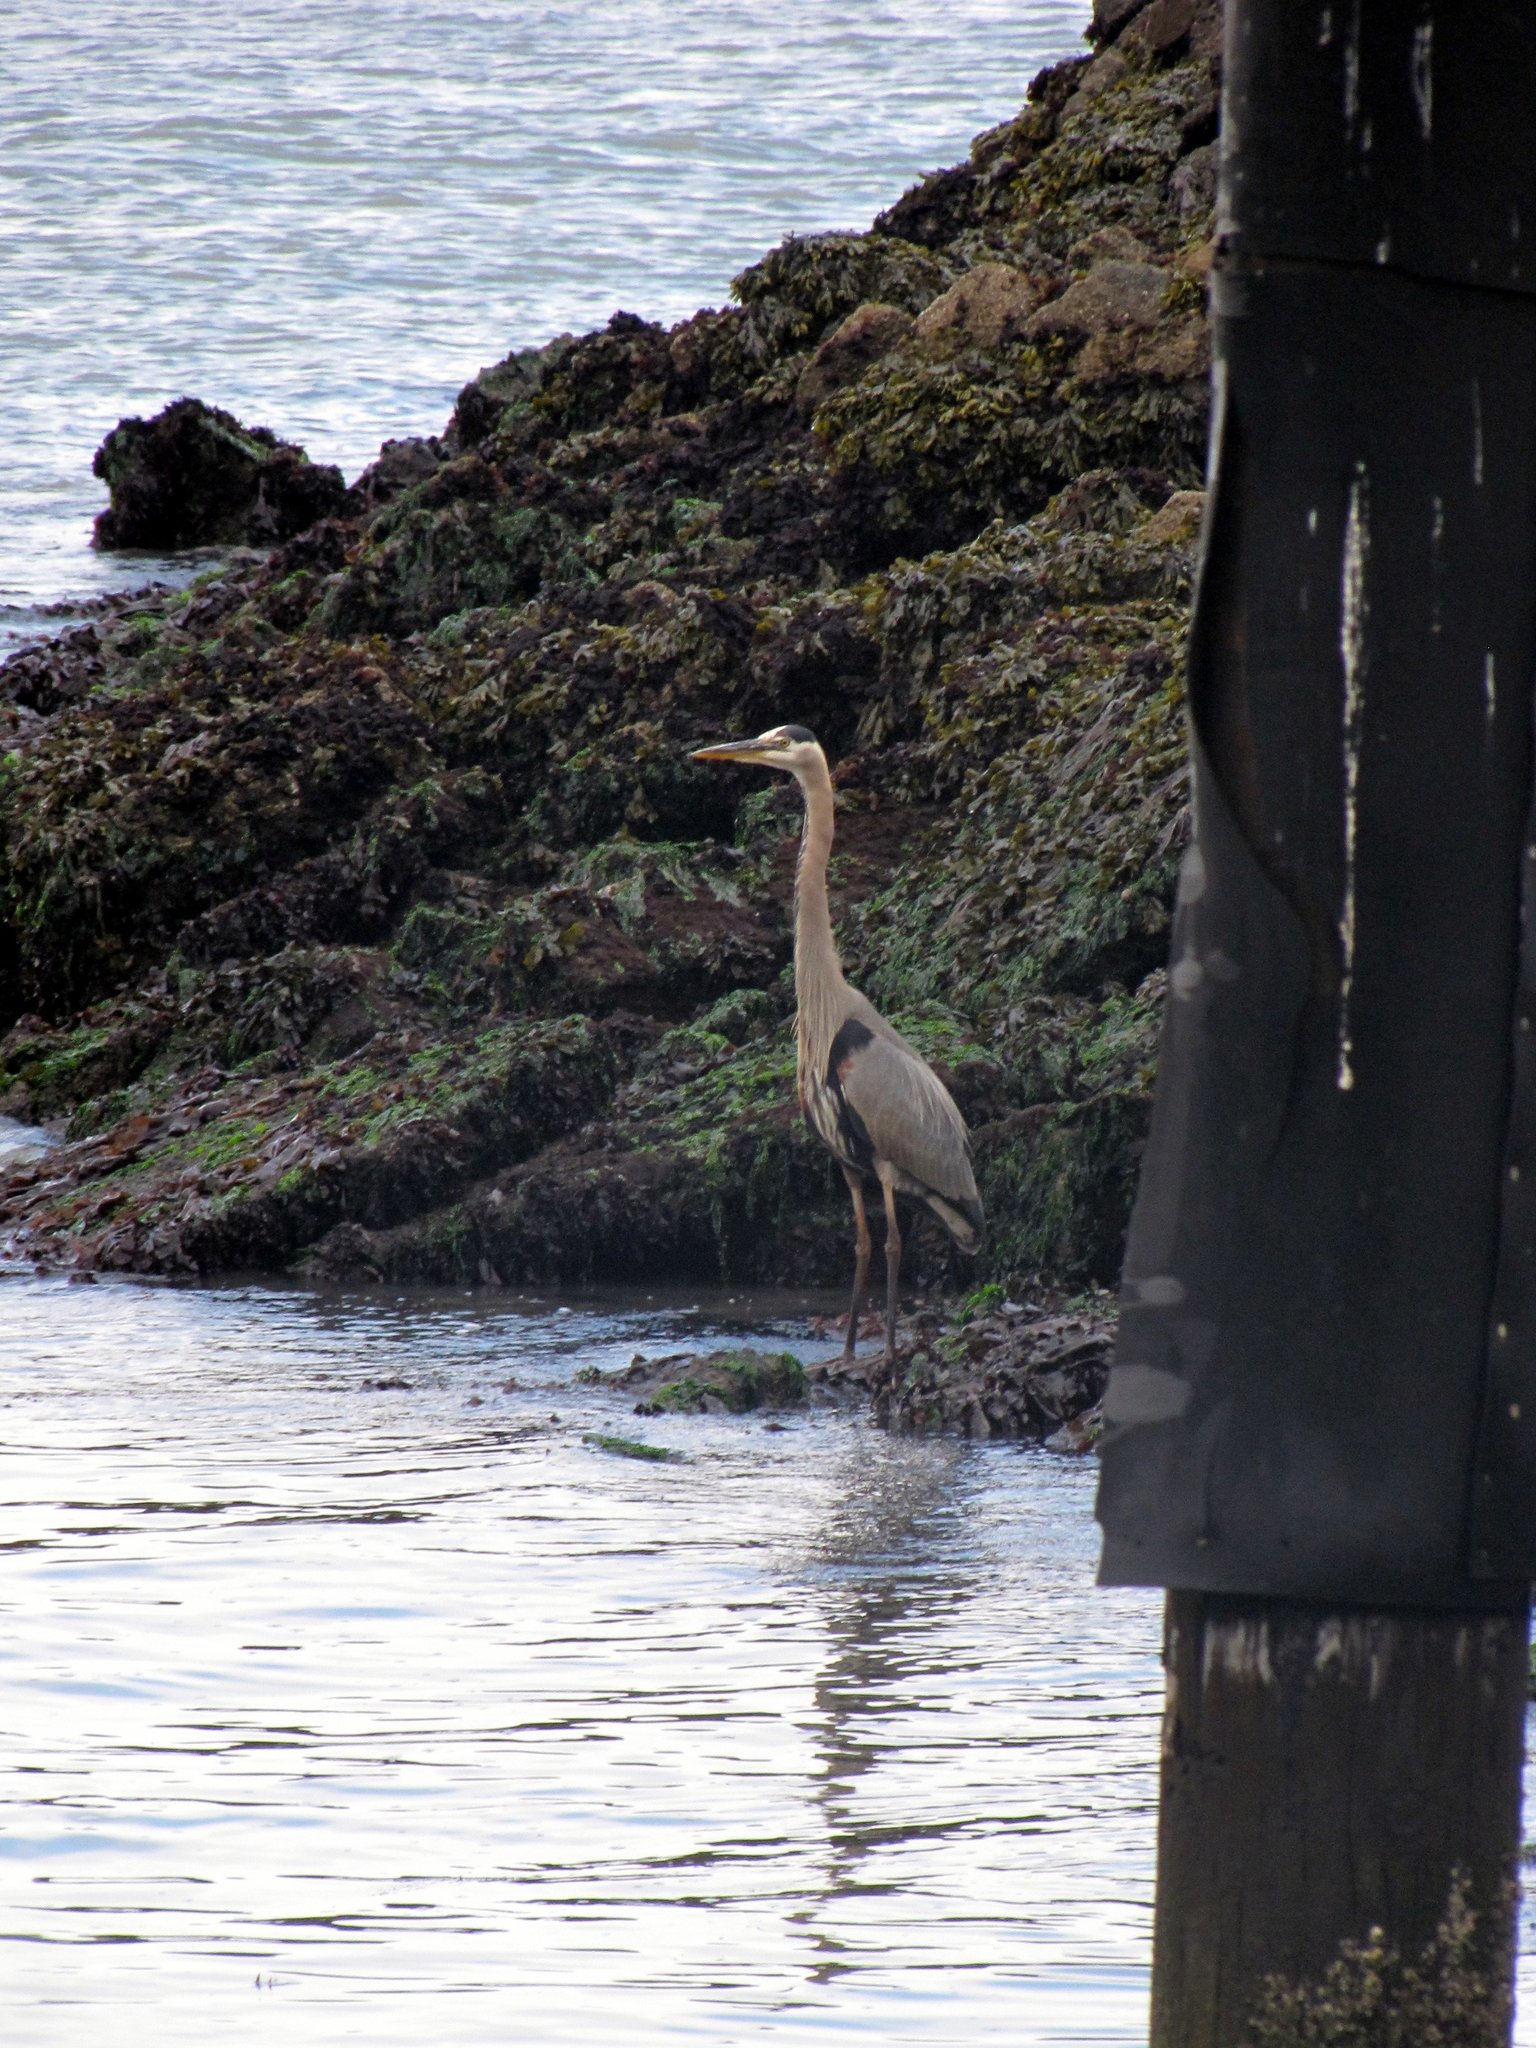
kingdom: Animalia
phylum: Chordata
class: Aves
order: Pelecaniformes
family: Ardeidae
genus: Ardea
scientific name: Ardea herodias
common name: Great blue heron
